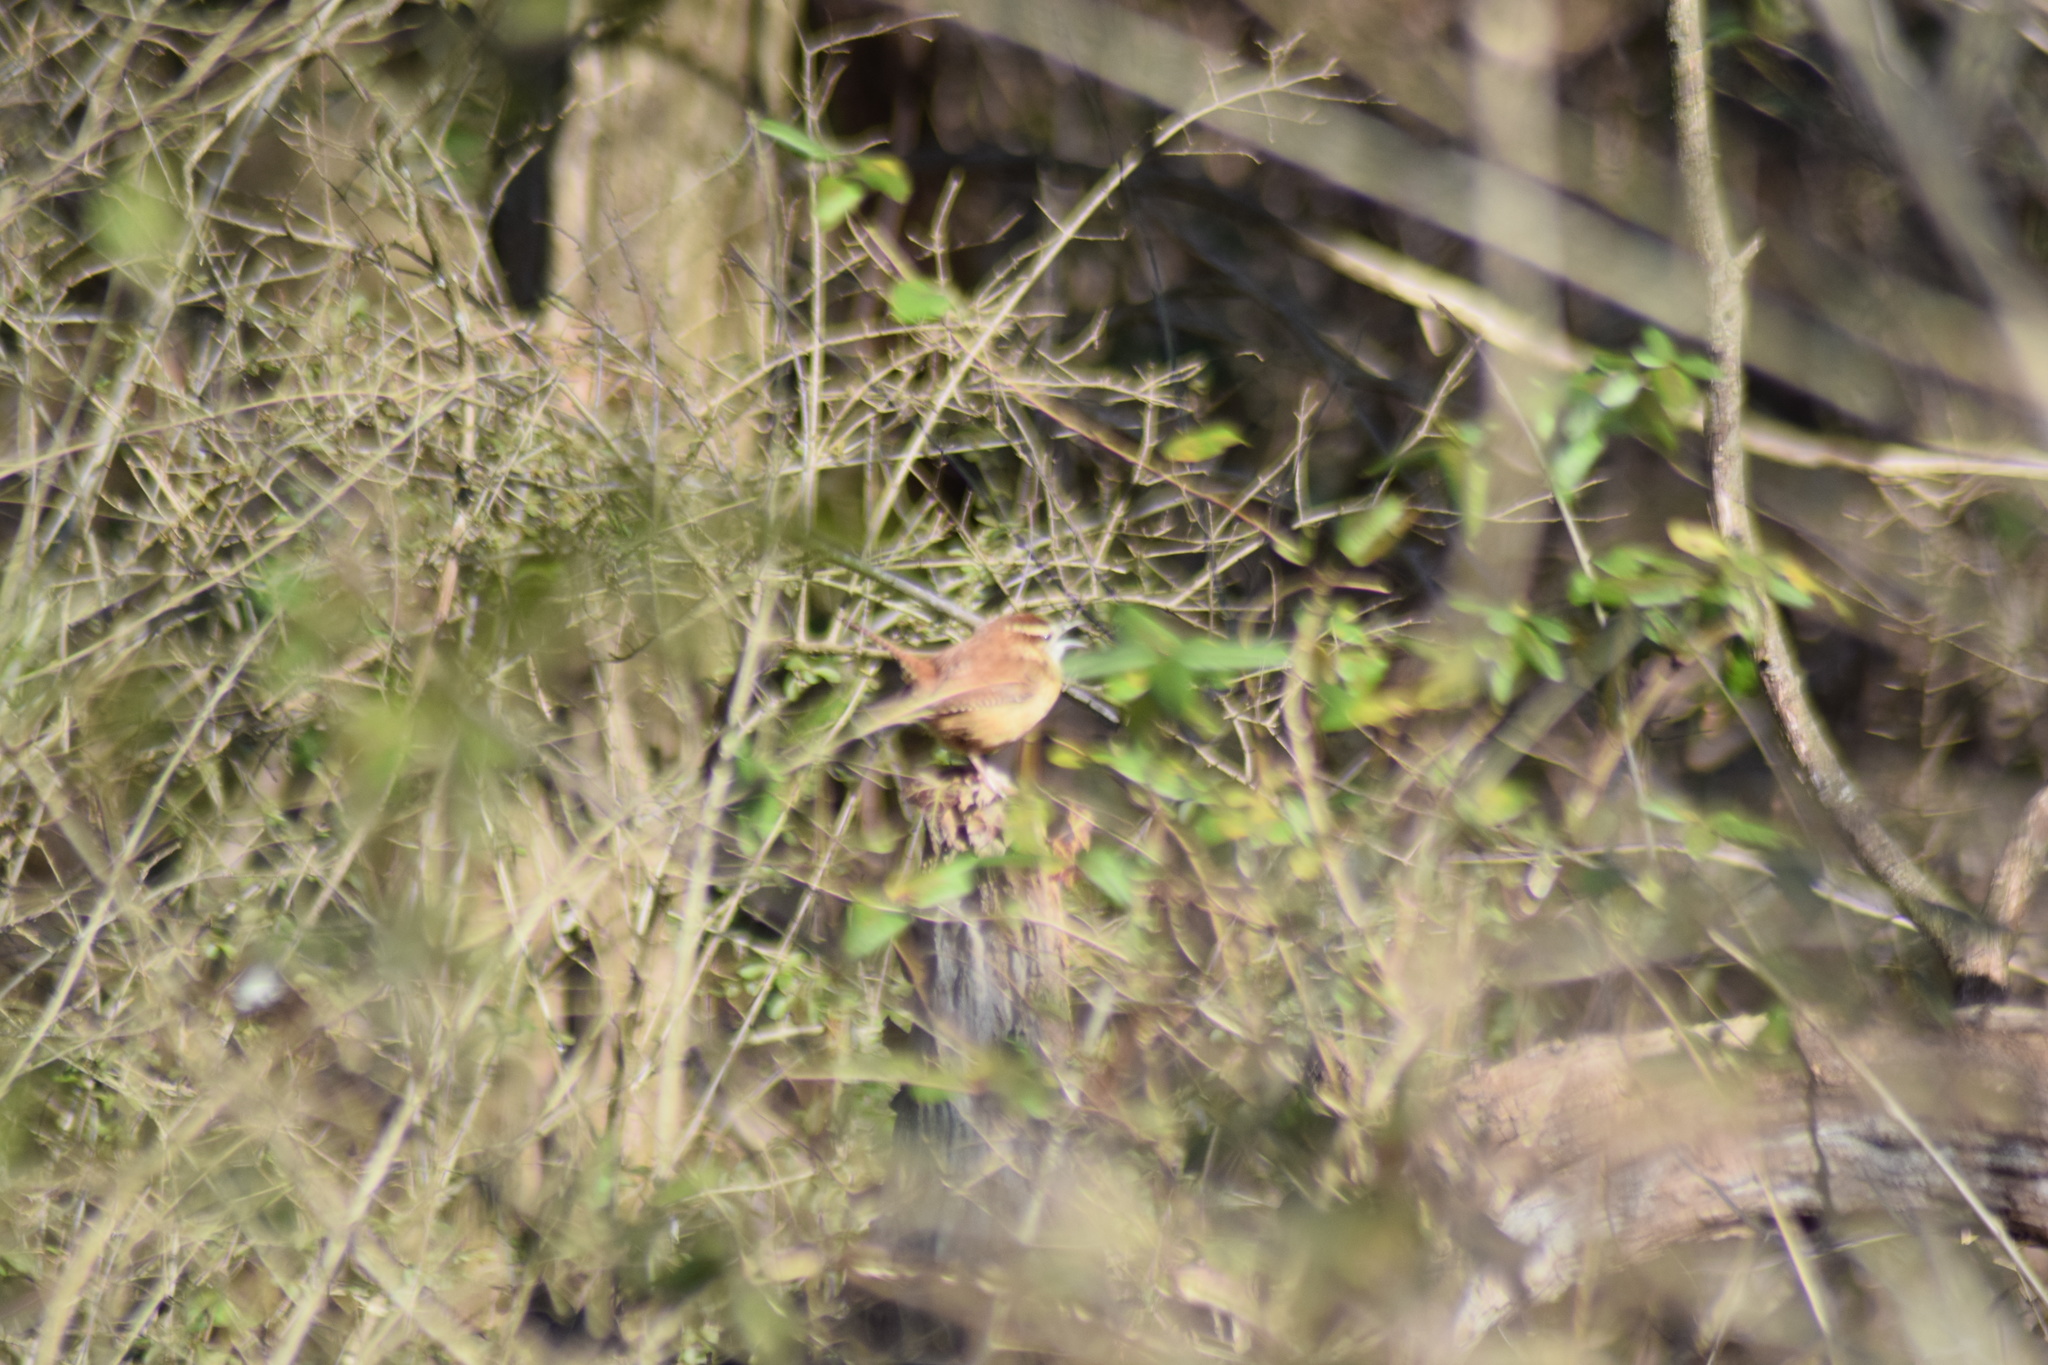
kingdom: Animalia
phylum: Chordata
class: Aves
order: Passeriformes
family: Troglodytidae
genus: Thryothorus
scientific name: Thryothorus ludovicianus
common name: Carolina wren
